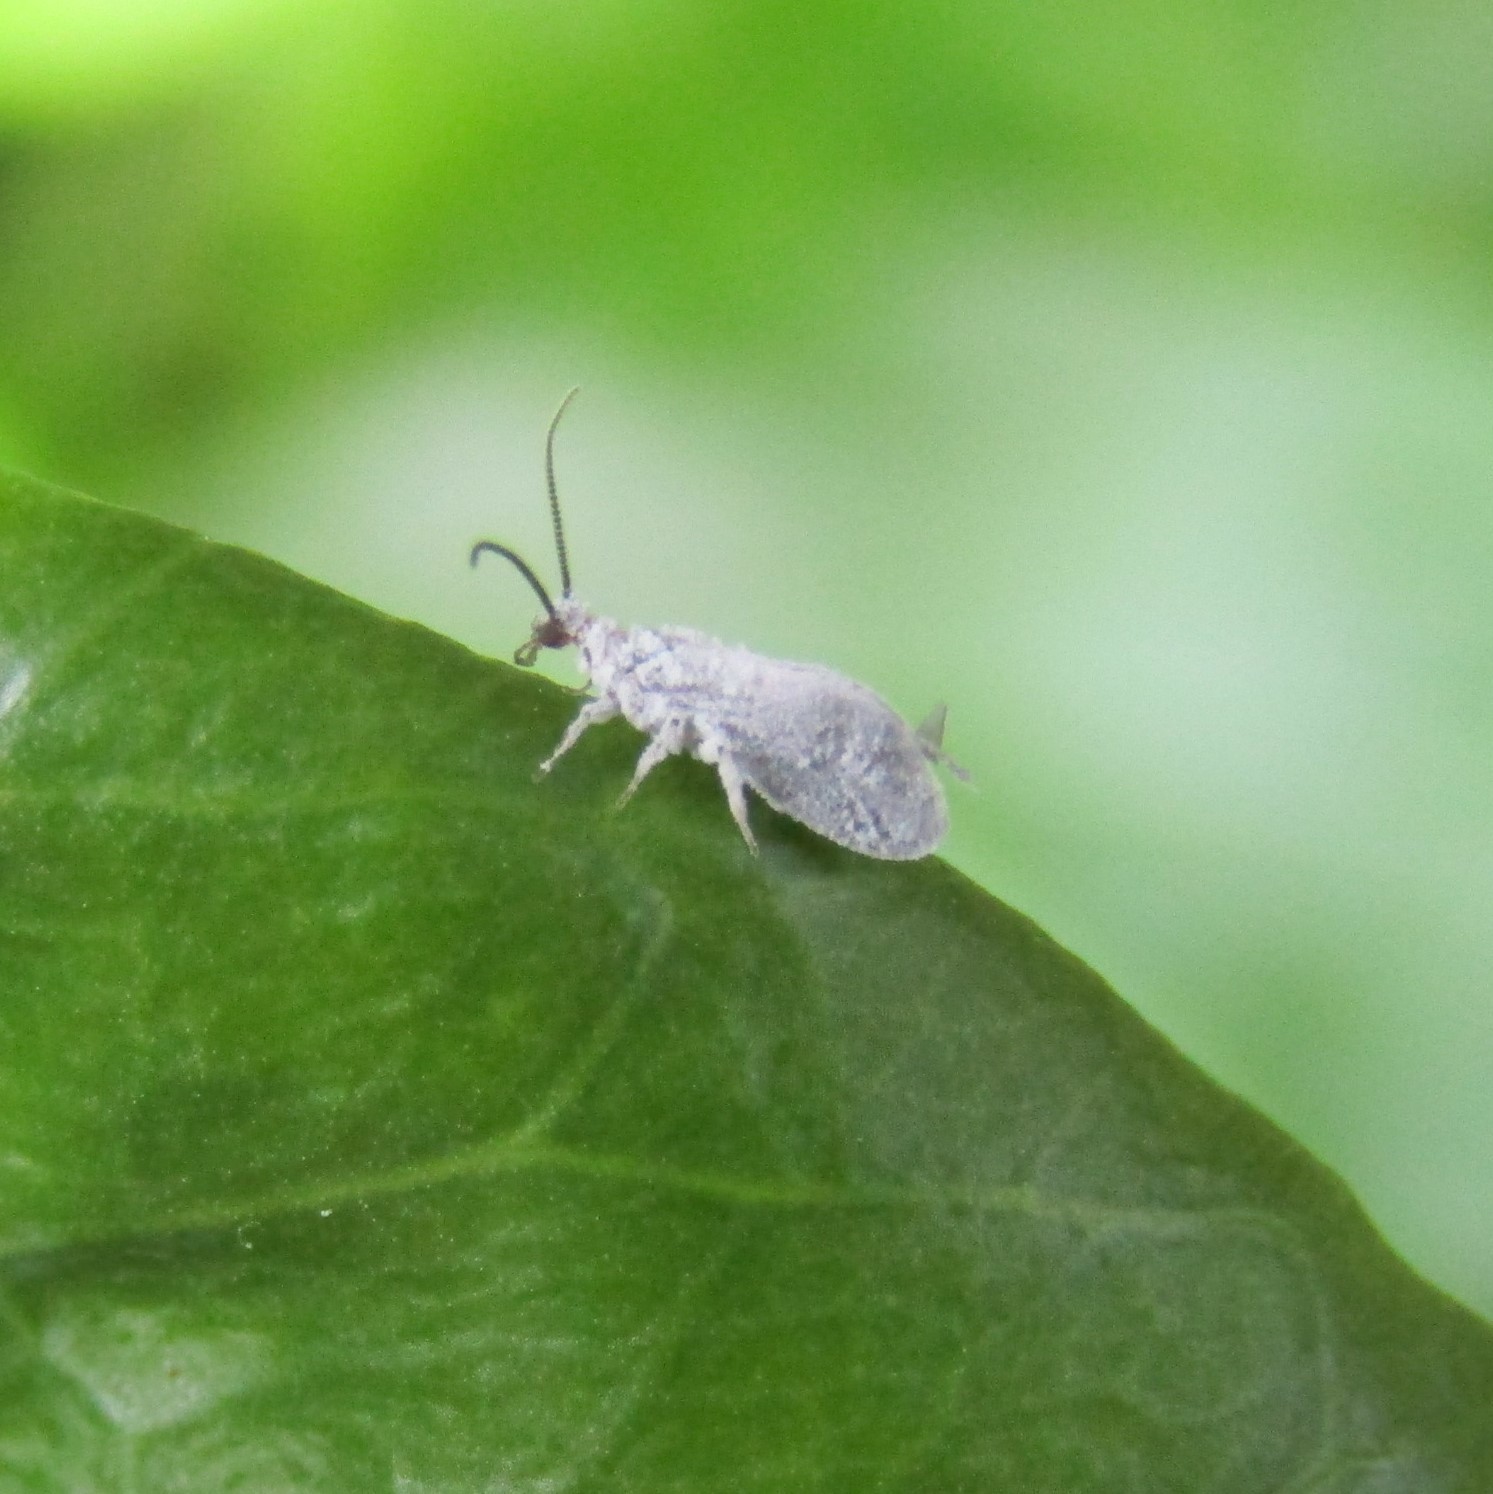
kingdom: Animalia
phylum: Arthropoda
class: Insecta
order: Neuroptera
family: Coniopterygidae
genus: Cryptoscenea
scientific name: Cryptoscenea australiensis
